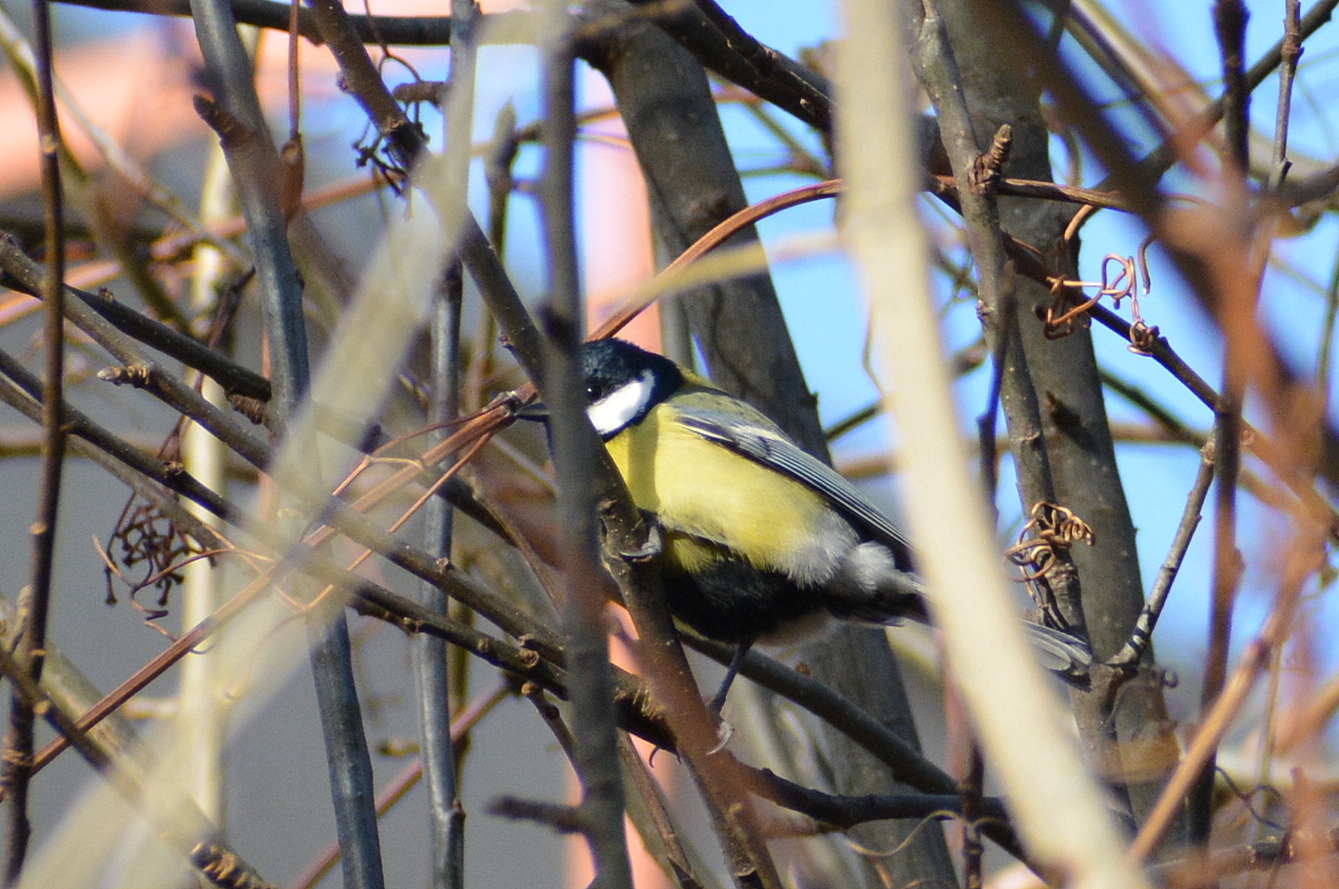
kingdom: Animalia
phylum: Chordata
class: Aves
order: Passeriformes
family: Paridae
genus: Parus
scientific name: Parus major
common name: Great tit
